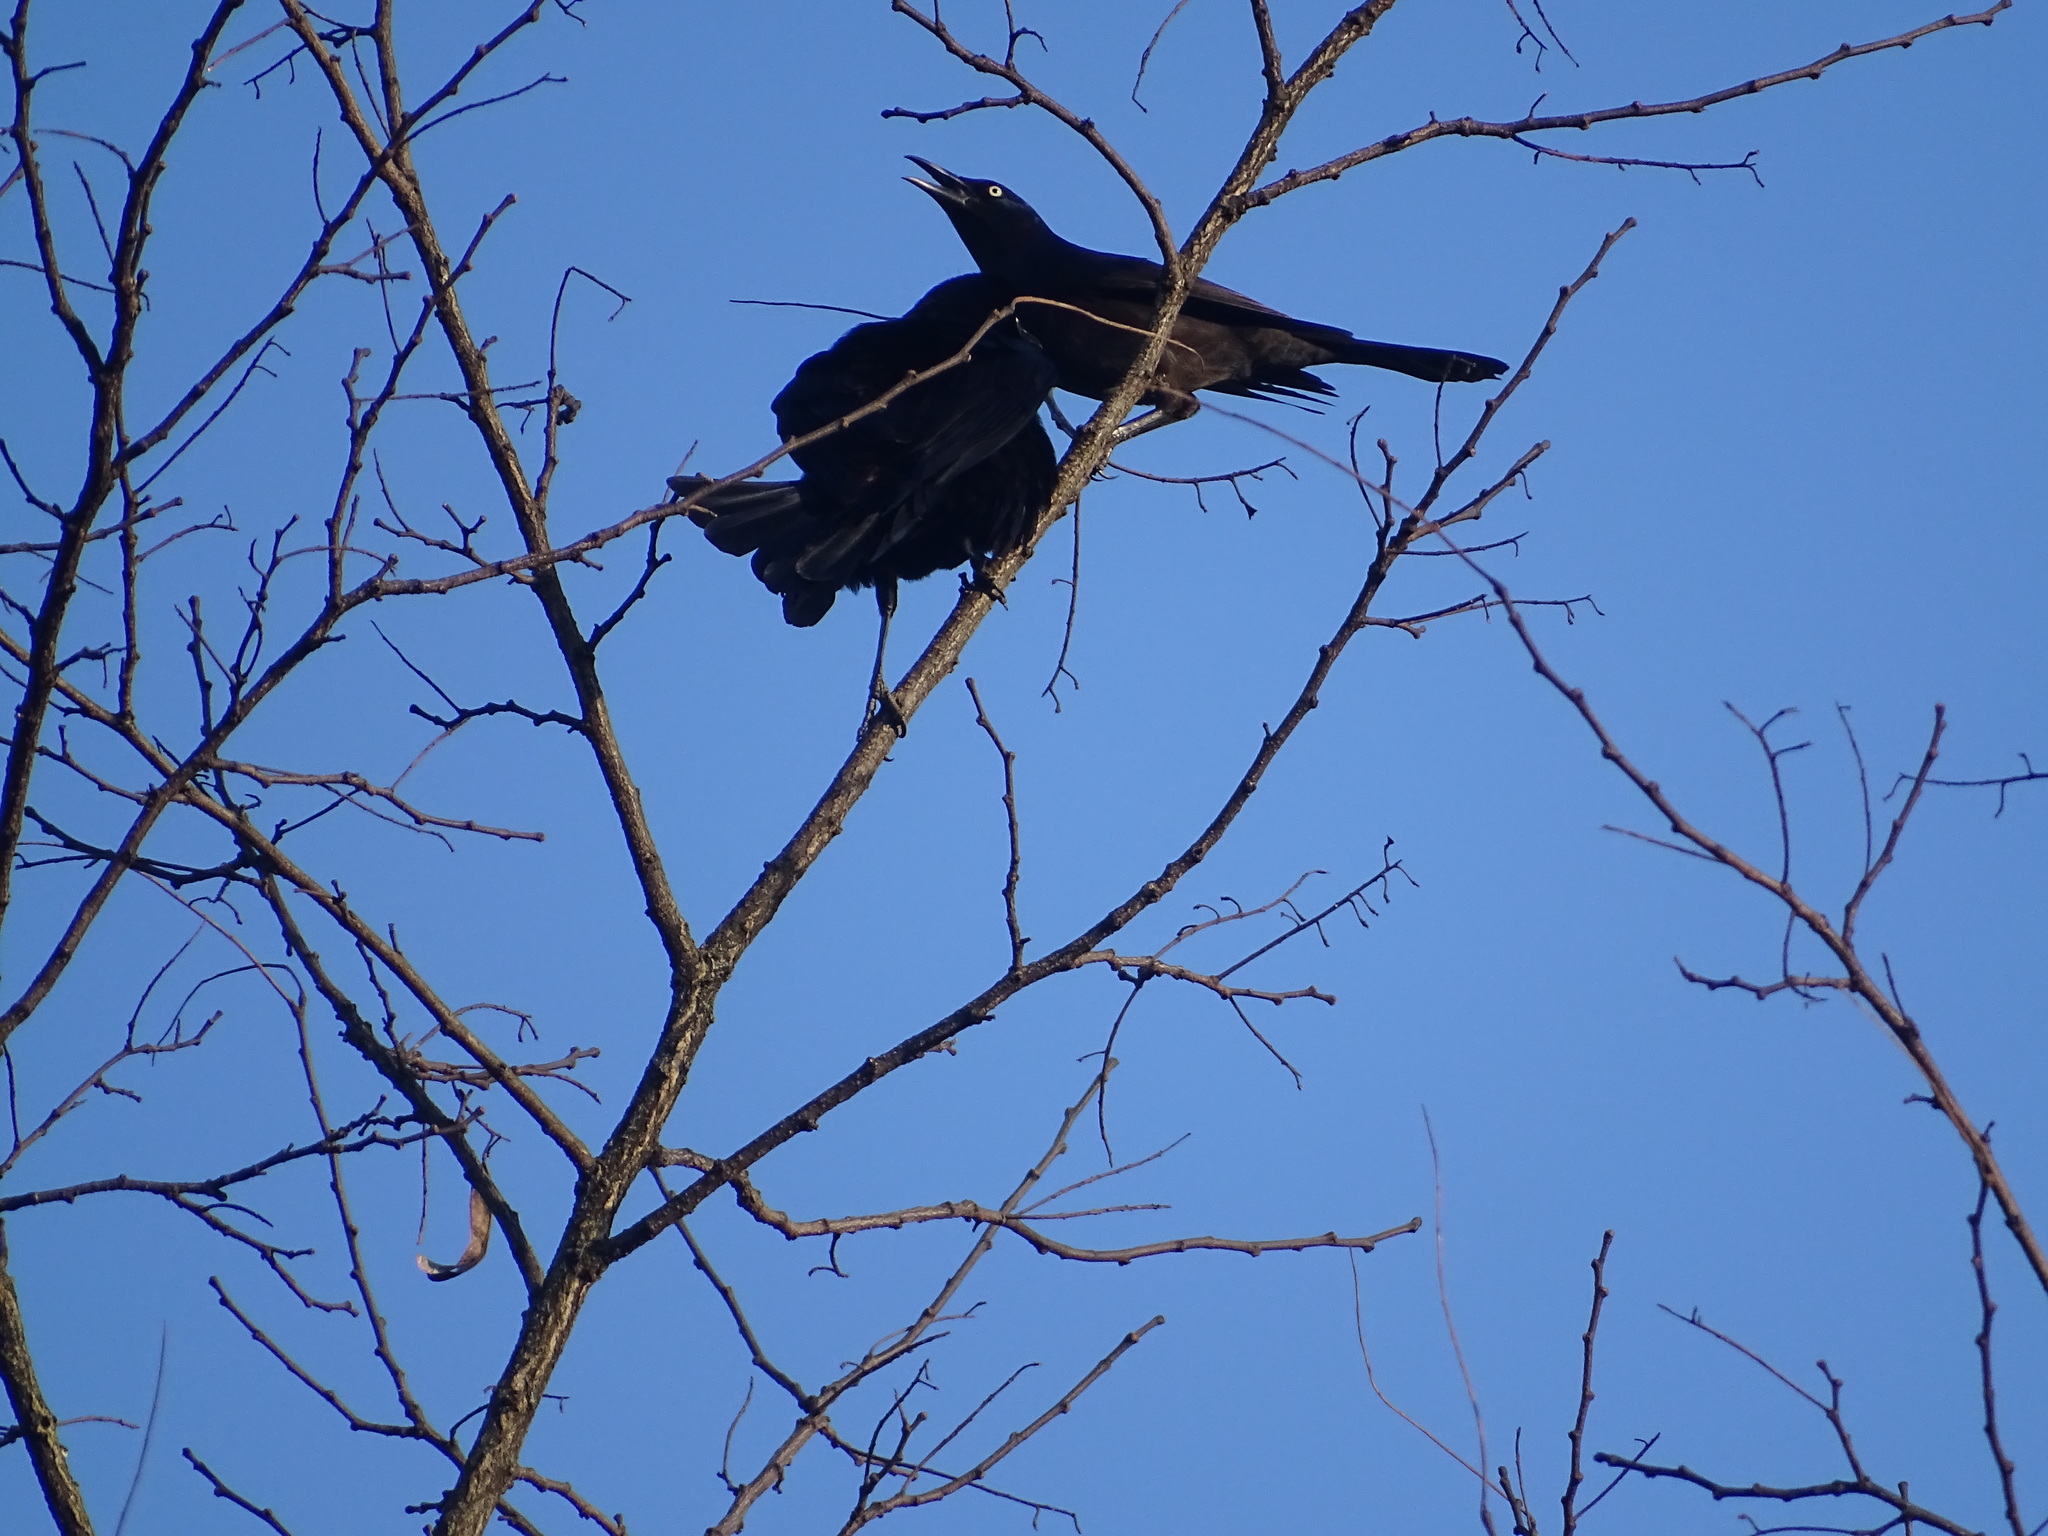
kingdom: Animalia
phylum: Chordata
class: Aves
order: Passeriformes
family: Icteridae
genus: Quiscalus
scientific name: Quiscalus quiscula
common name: Common grackle
